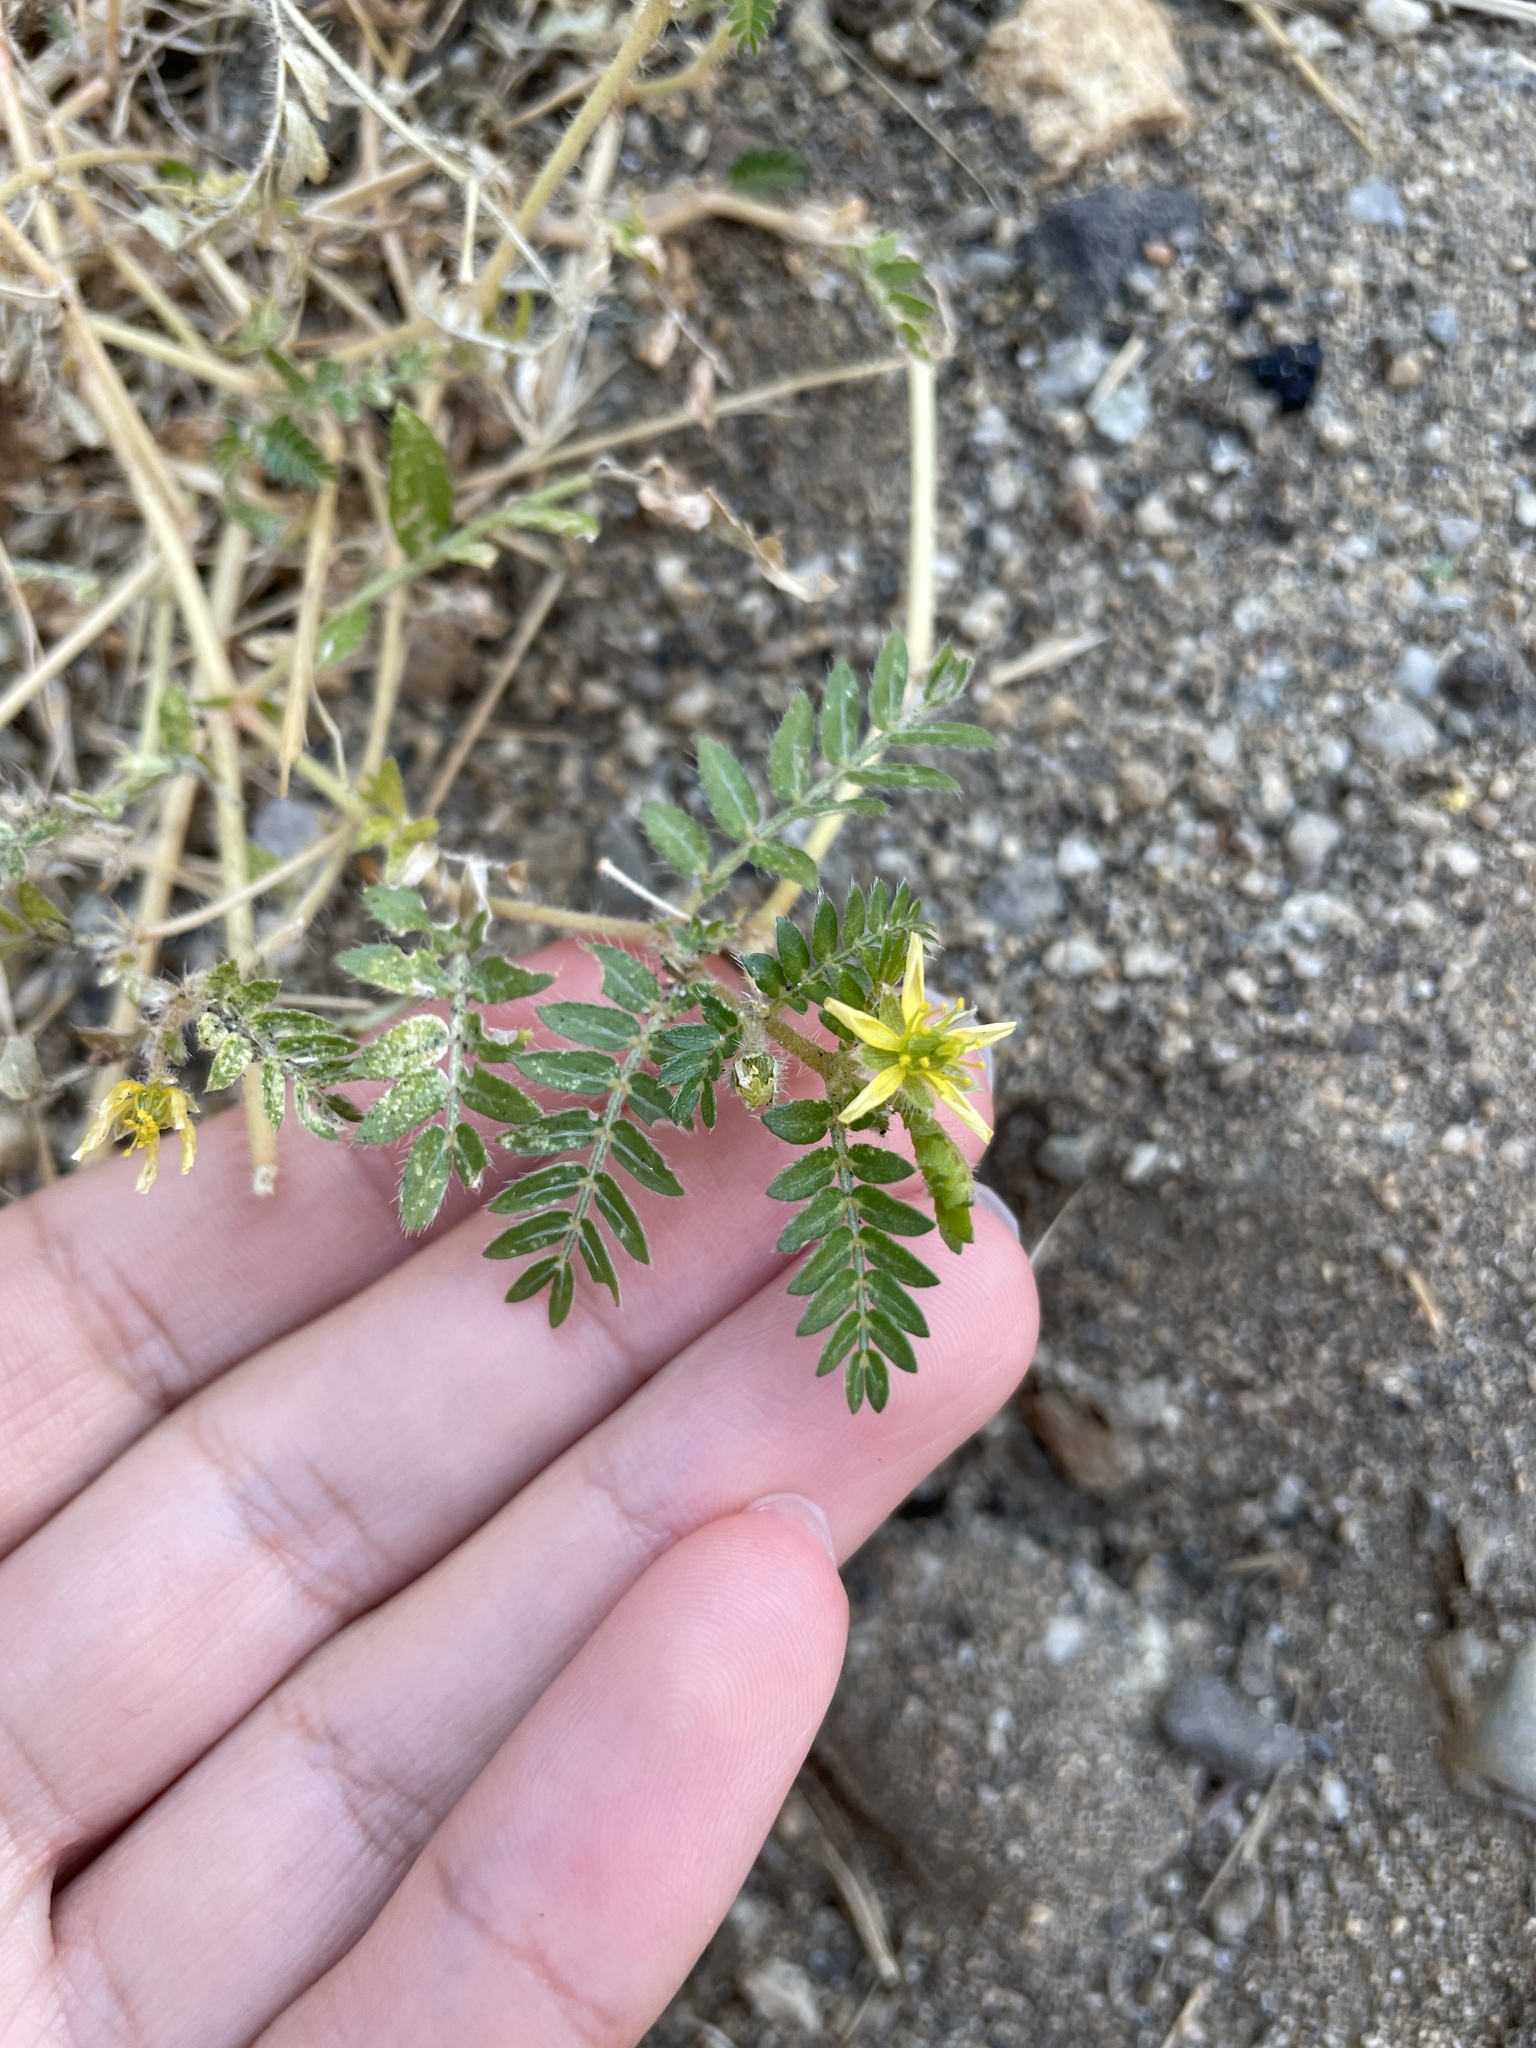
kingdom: Plantae
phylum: Tracheophyta
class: Magnoliopsida
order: Zygophyllales
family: Zygophyllaceae
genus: Tribulus
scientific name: Tribulus terrestris
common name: Puncturevine
